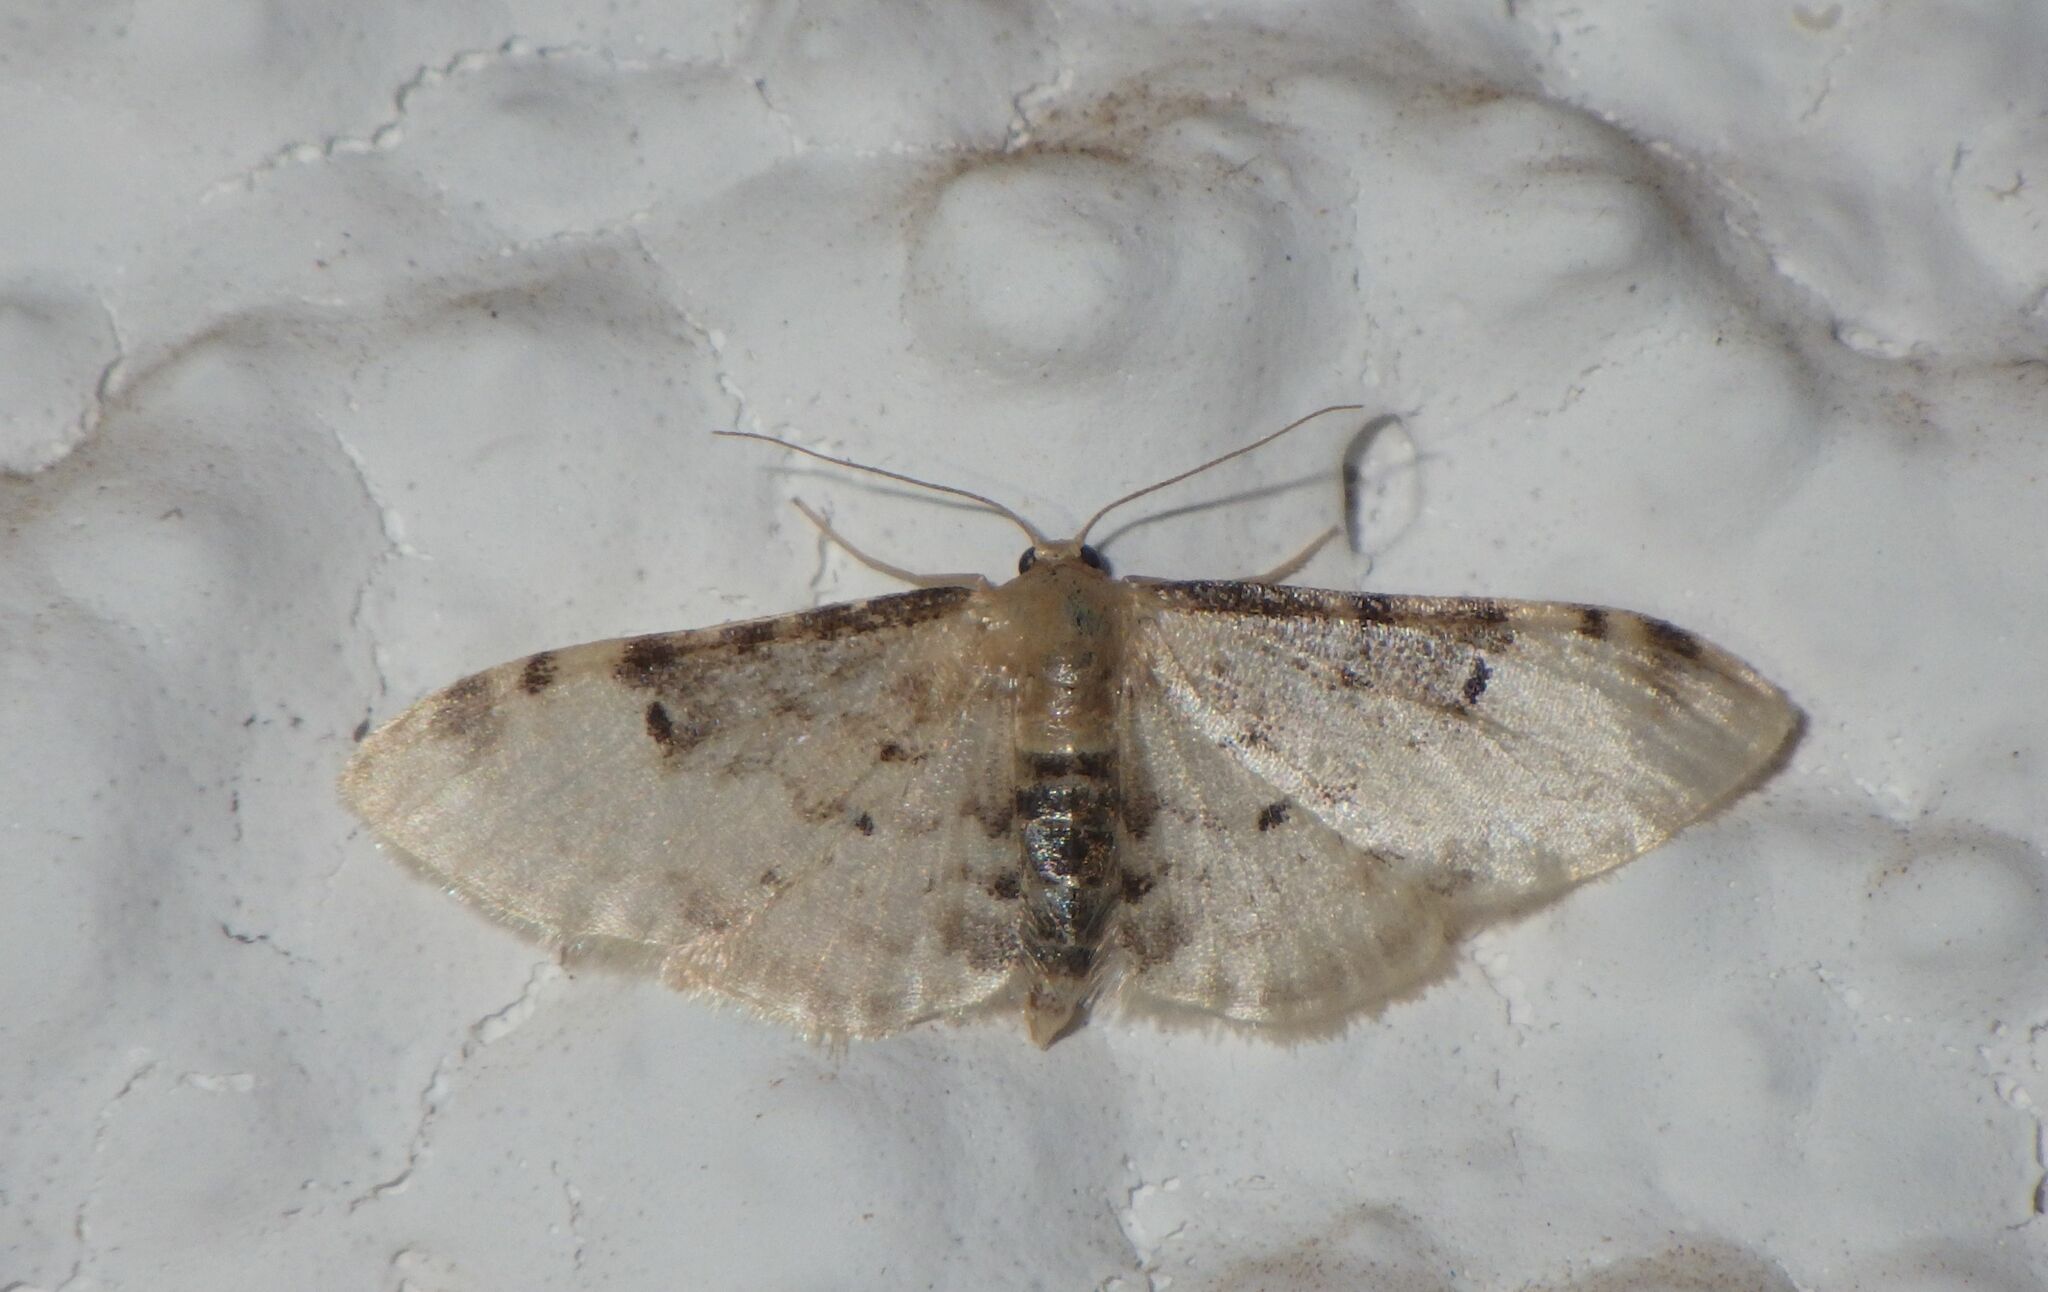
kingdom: Animalia
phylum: Arthropoda
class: Insecta
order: Lepidoptera
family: Geometridae
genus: Idaea
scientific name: Idaea filicata
